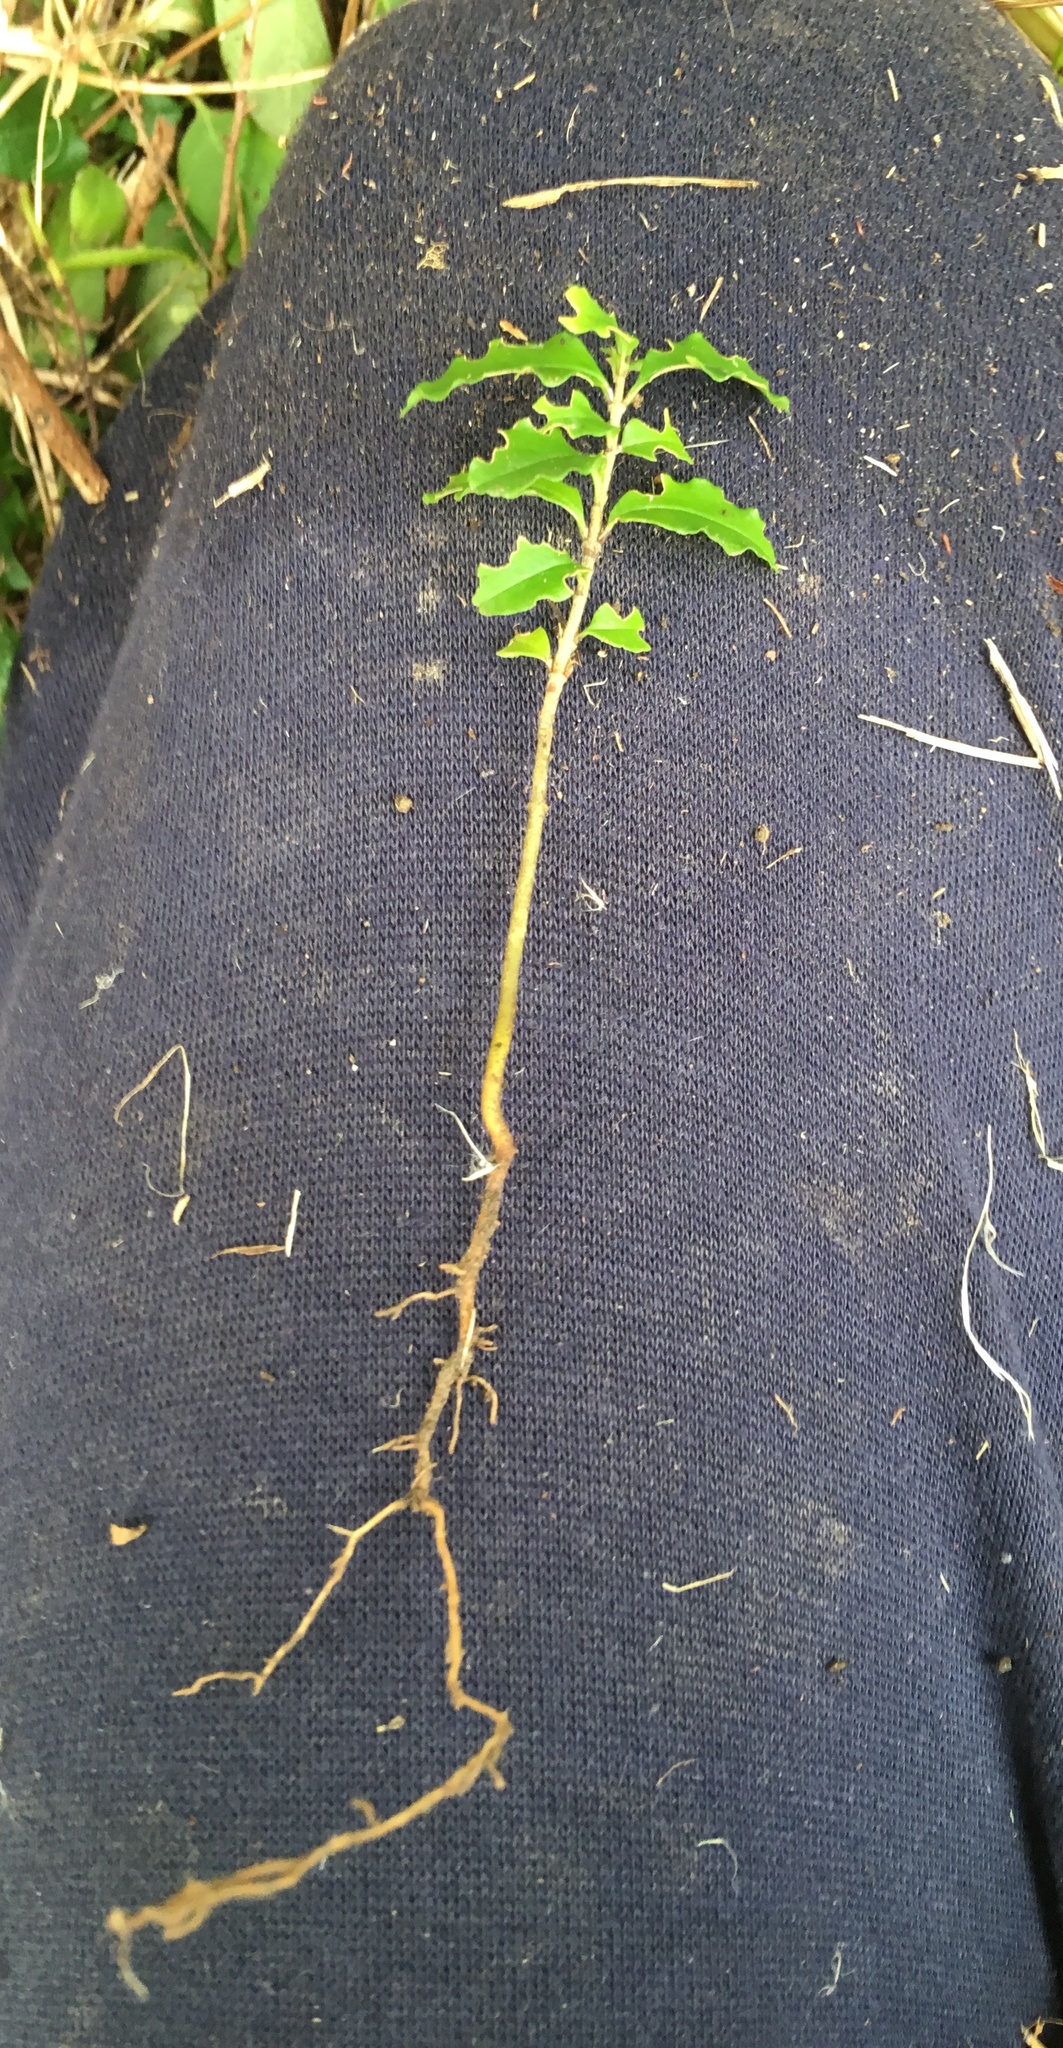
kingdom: Plantae
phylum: Tracheophyta
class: Magnoliopsida
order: Lamiales
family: Oleaceae
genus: Ligustrum
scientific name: Ligustrum sinense
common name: Chinese privet
